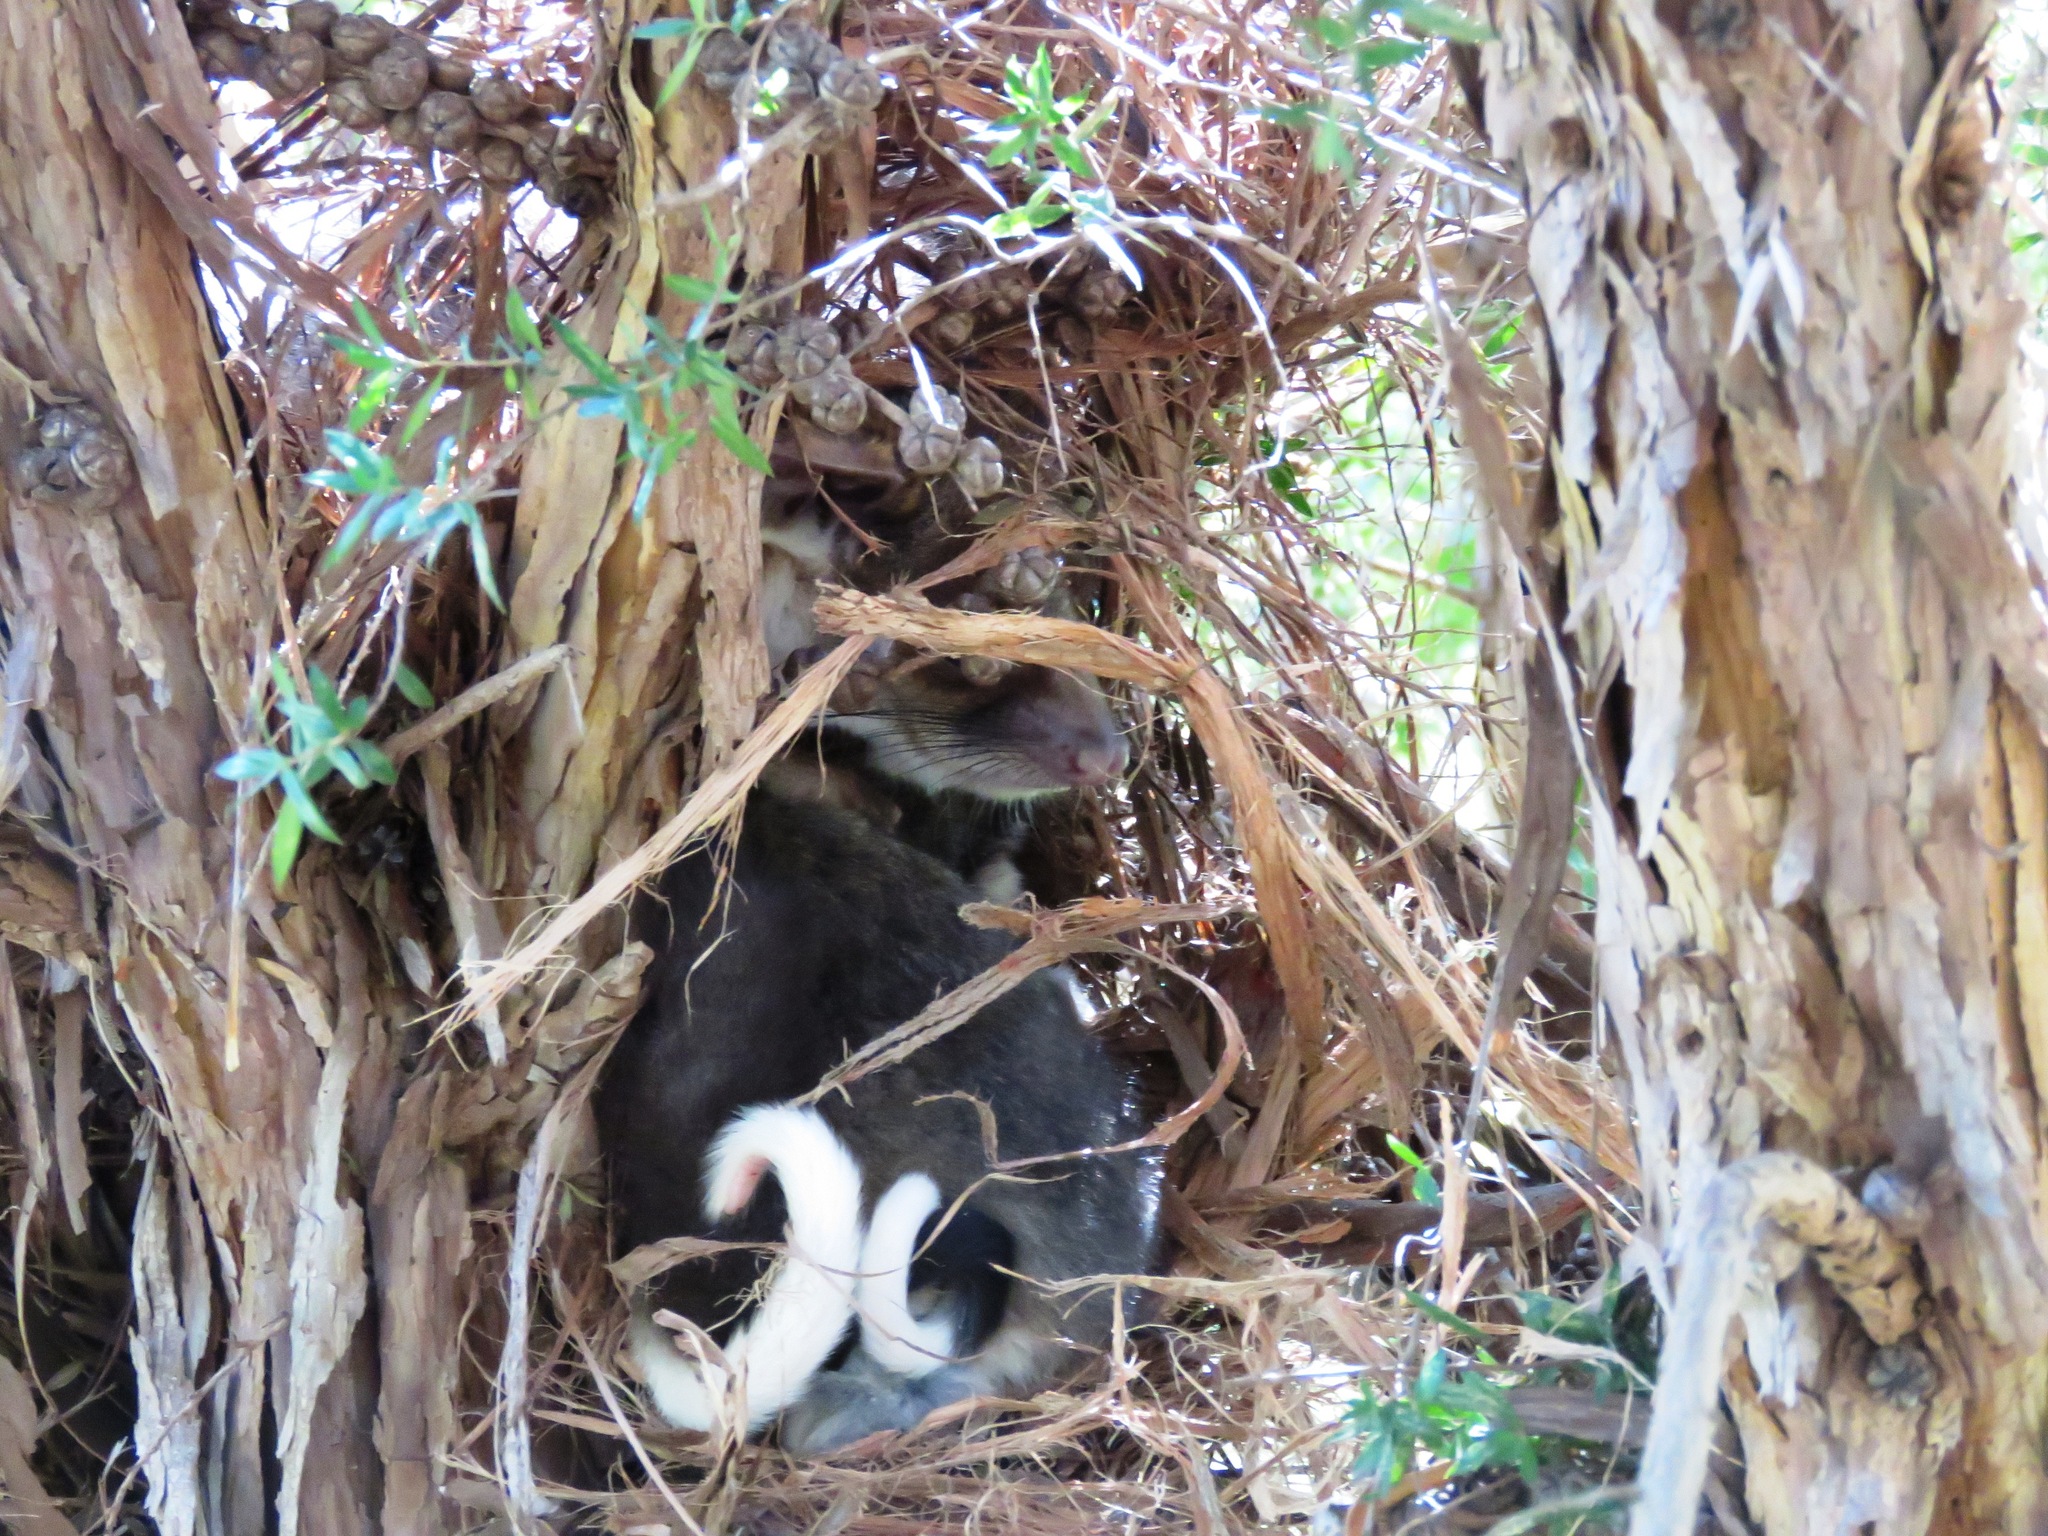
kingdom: Animalia
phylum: Chordata
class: Mammalia
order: Diprotodontia
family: Pseudocheiridae
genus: Pseudocheirus
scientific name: Pseudocheirus peregrinus
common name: Common ringtail possum
